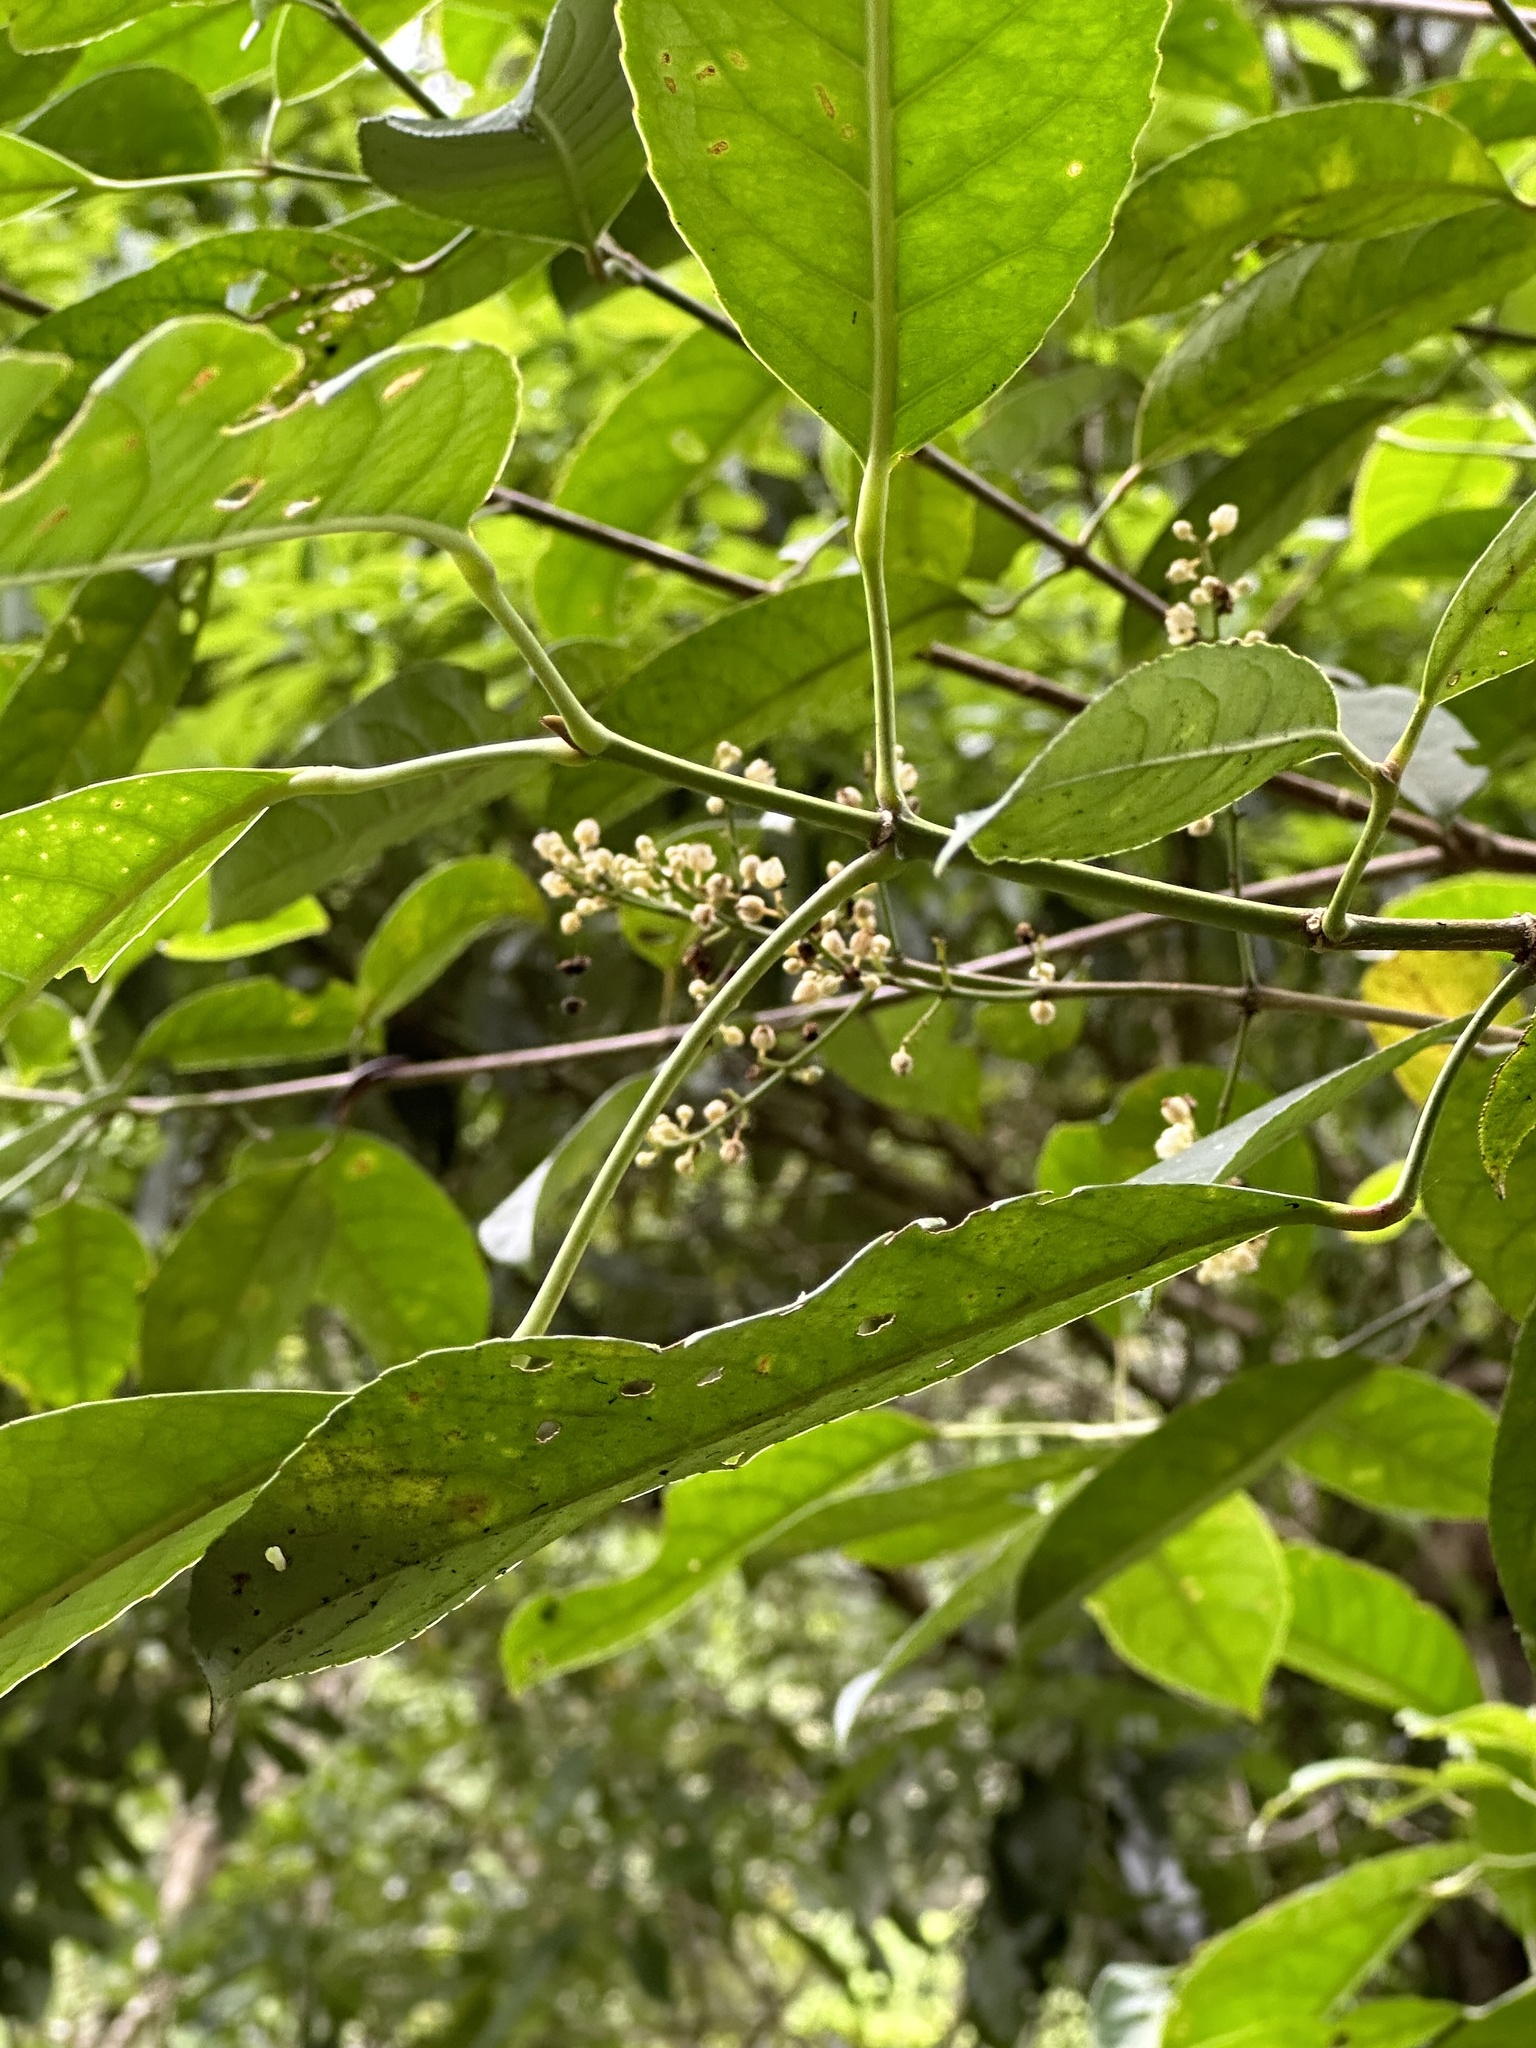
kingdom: Plantae
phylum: Tracheophyta
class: Magnoliopsida
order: Crossosomatales
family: Staphyleaceae
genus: Turpinia
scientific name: Turpinia formosana
